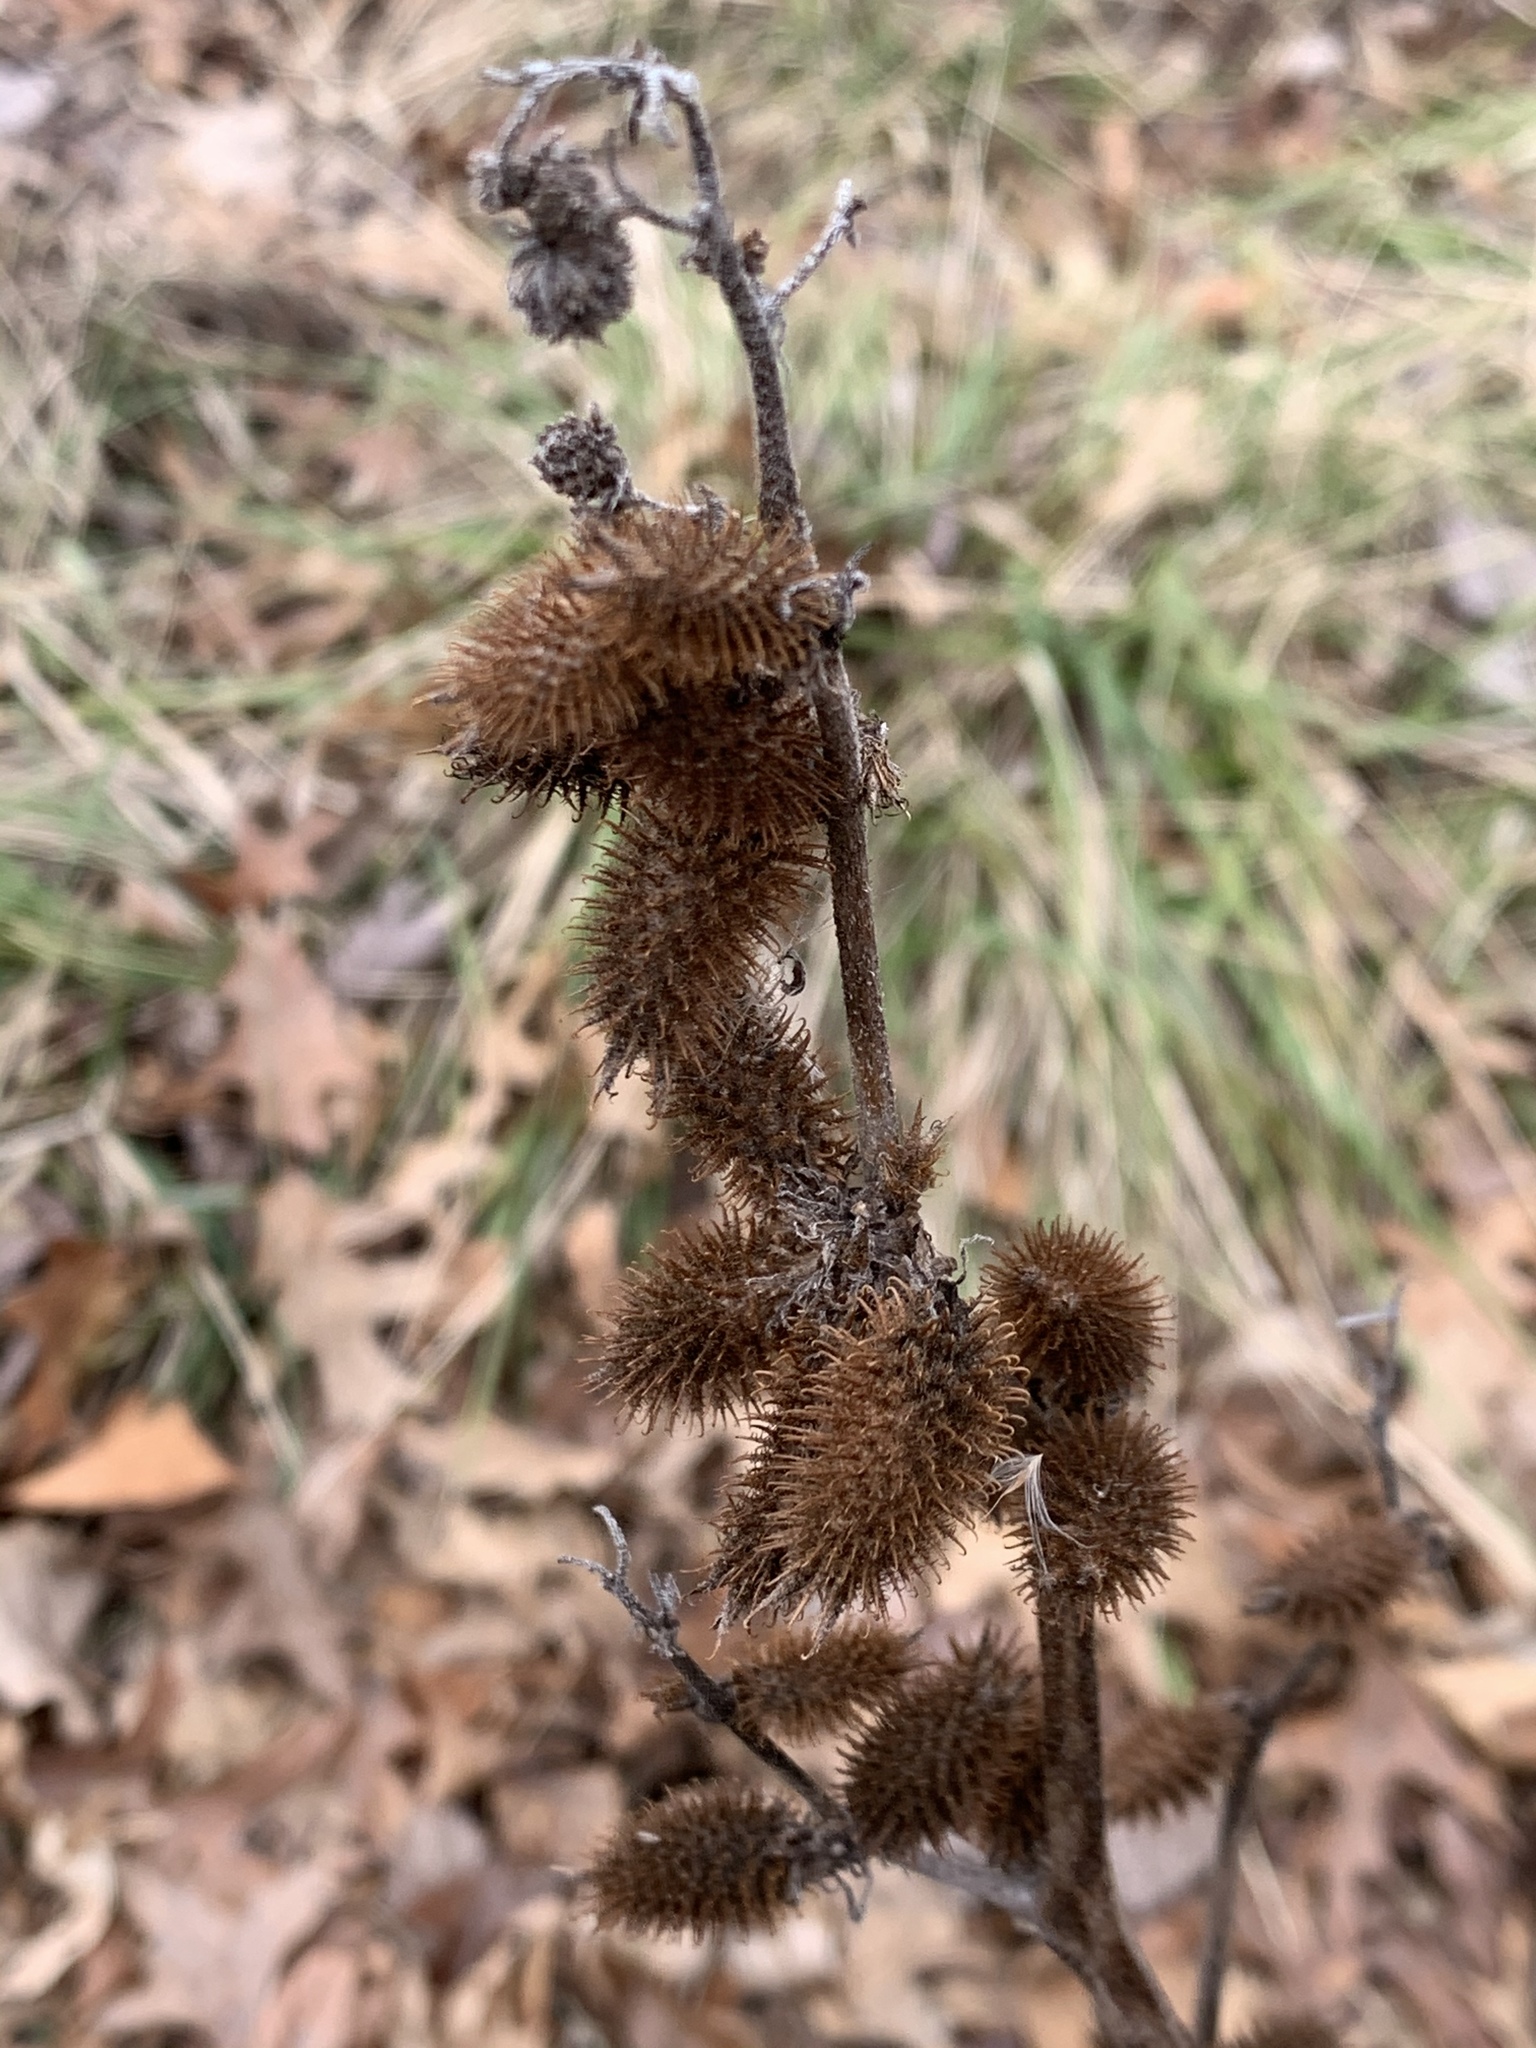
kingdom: Plantae
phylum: Tracheophyta
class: Magnoliopsida
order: Asterales
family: Asteraceae
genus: Xanthium
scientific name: Xanthium strumarium
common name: Rough cocklebur
